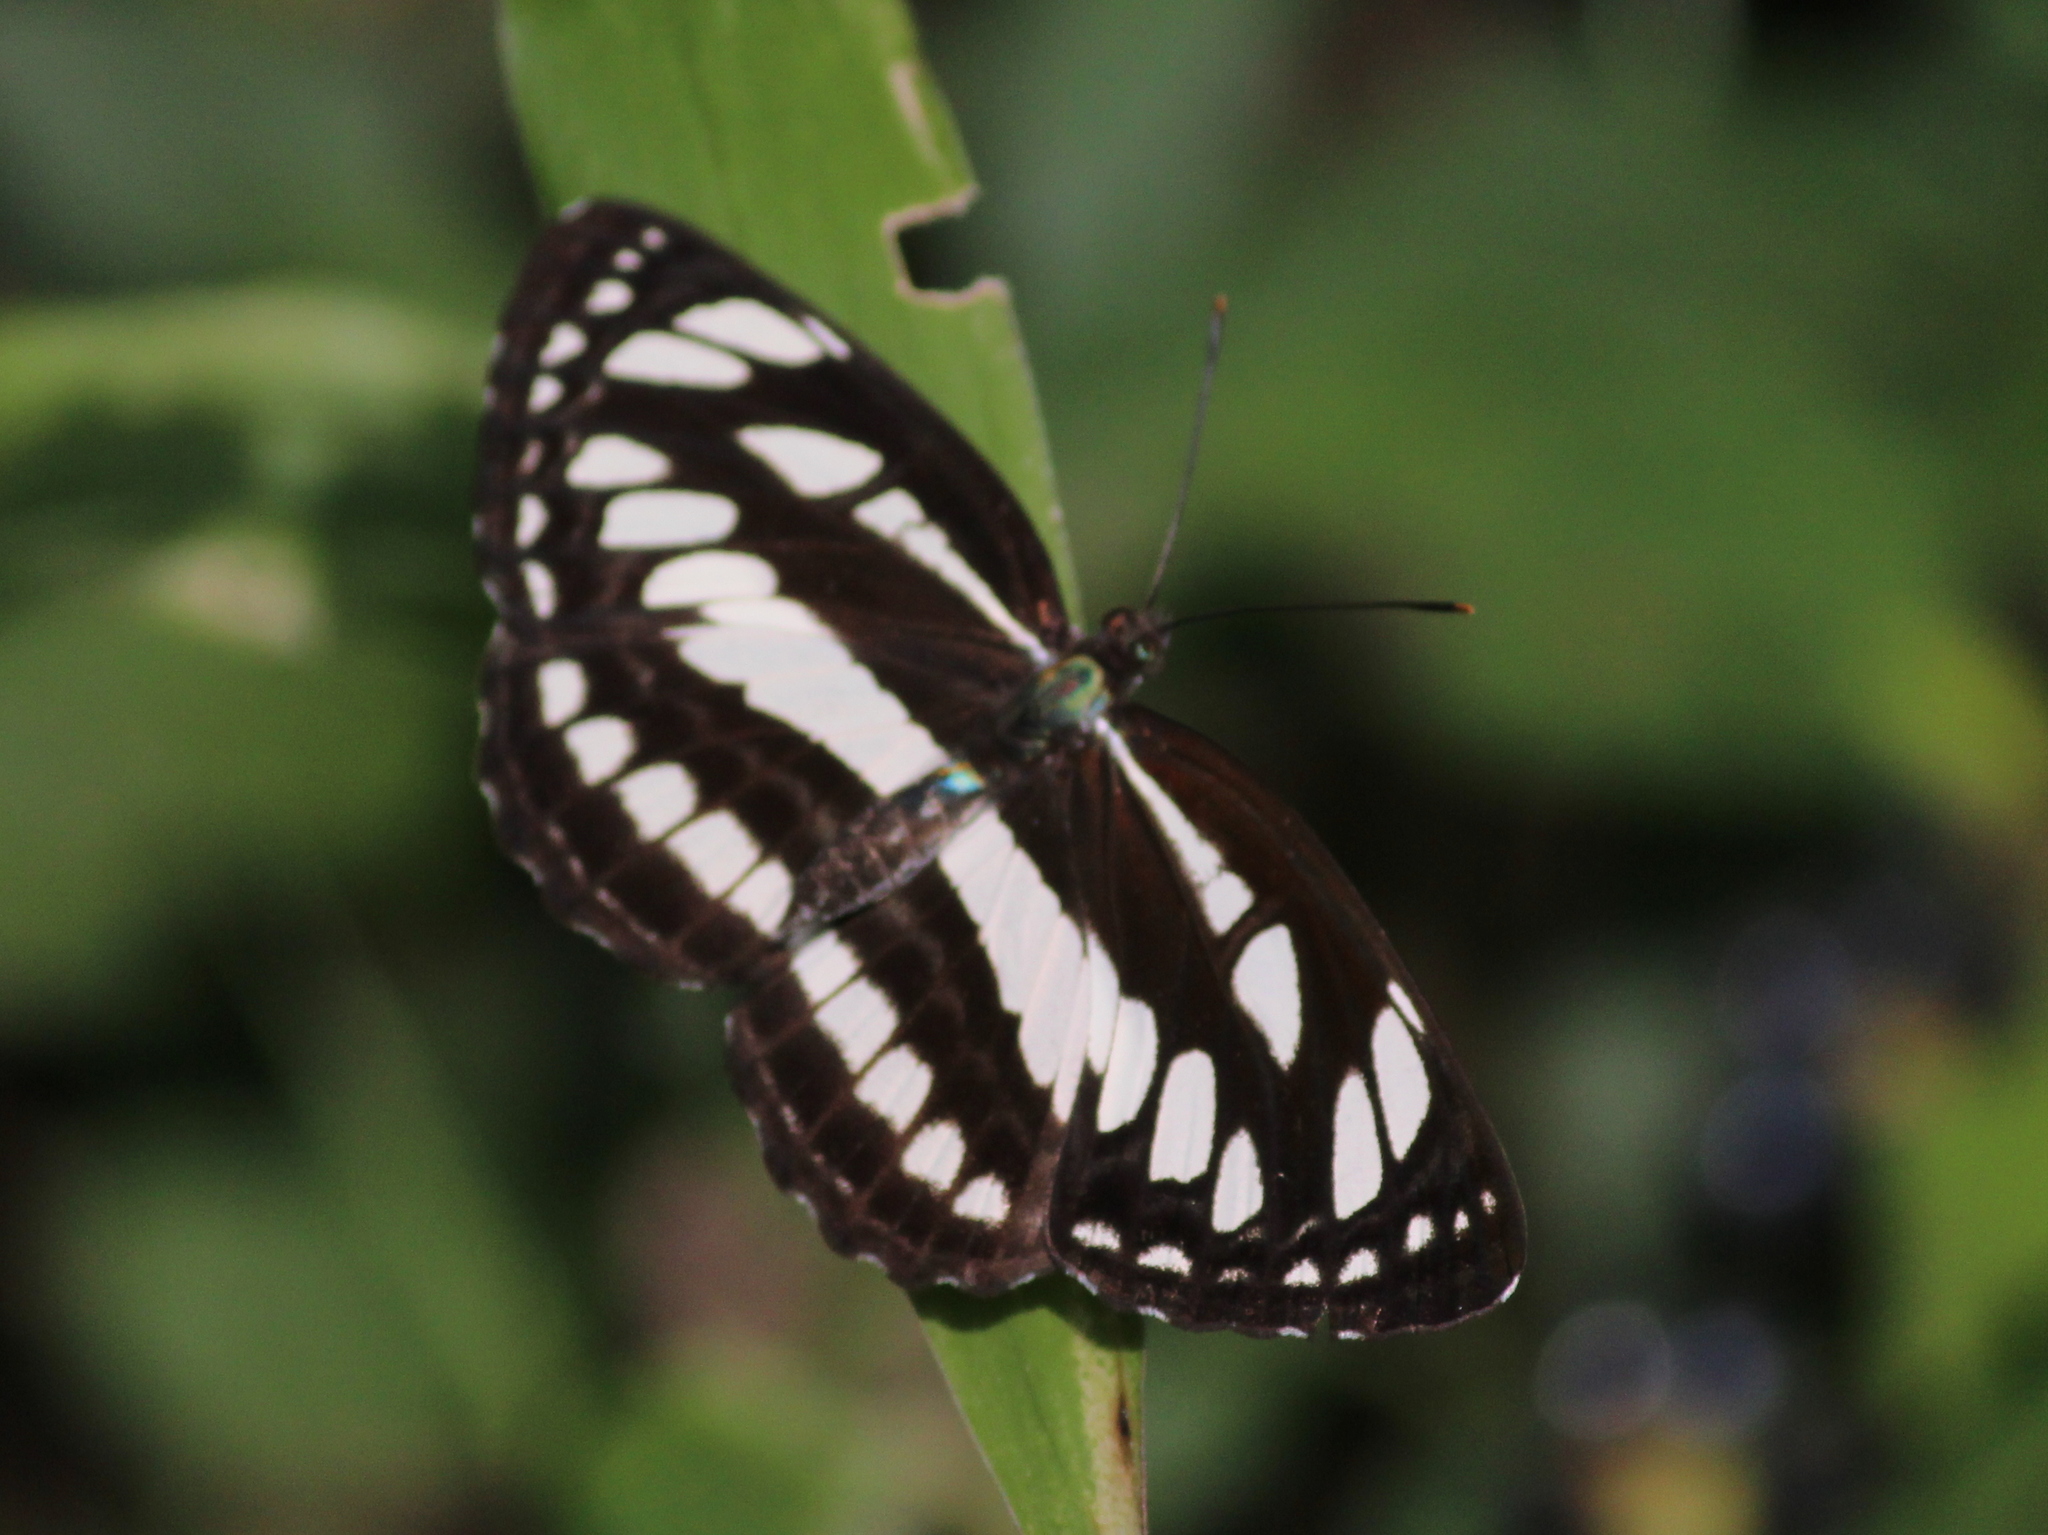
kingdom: Animalia
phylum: Arthropoda
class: Insecta
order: Lepidoptera
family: Nymphalidae
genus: Neptis
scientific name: Neptis hylas
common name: Common sailer
